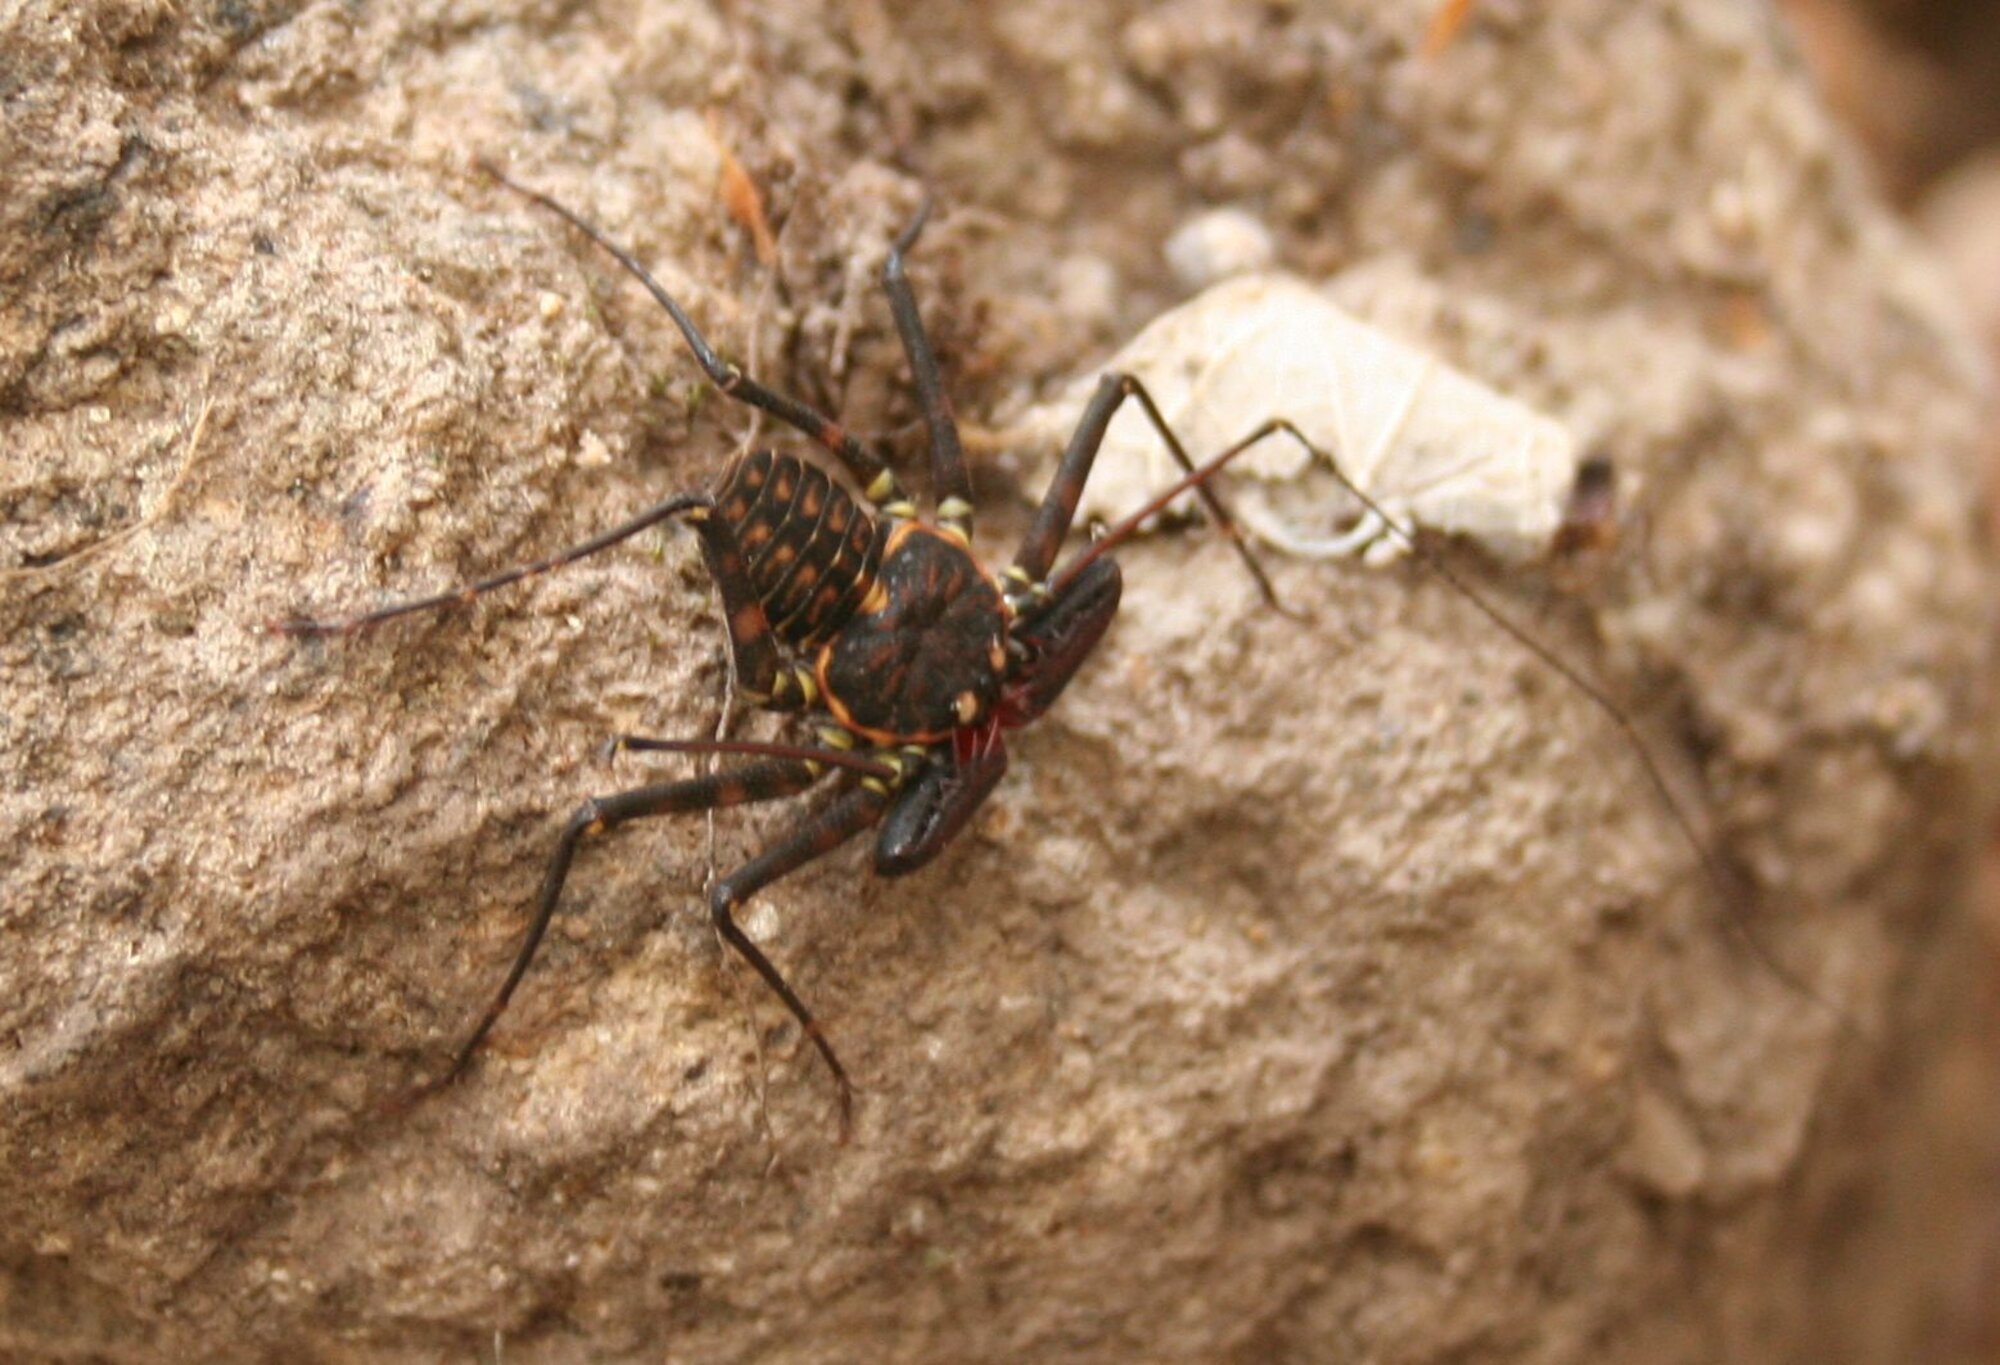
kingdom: Animalia
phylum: Arthropoda
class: Arachnida
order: Amblypygi
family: Phrynidae
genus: Phrynus
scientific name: Phrynus whitei
